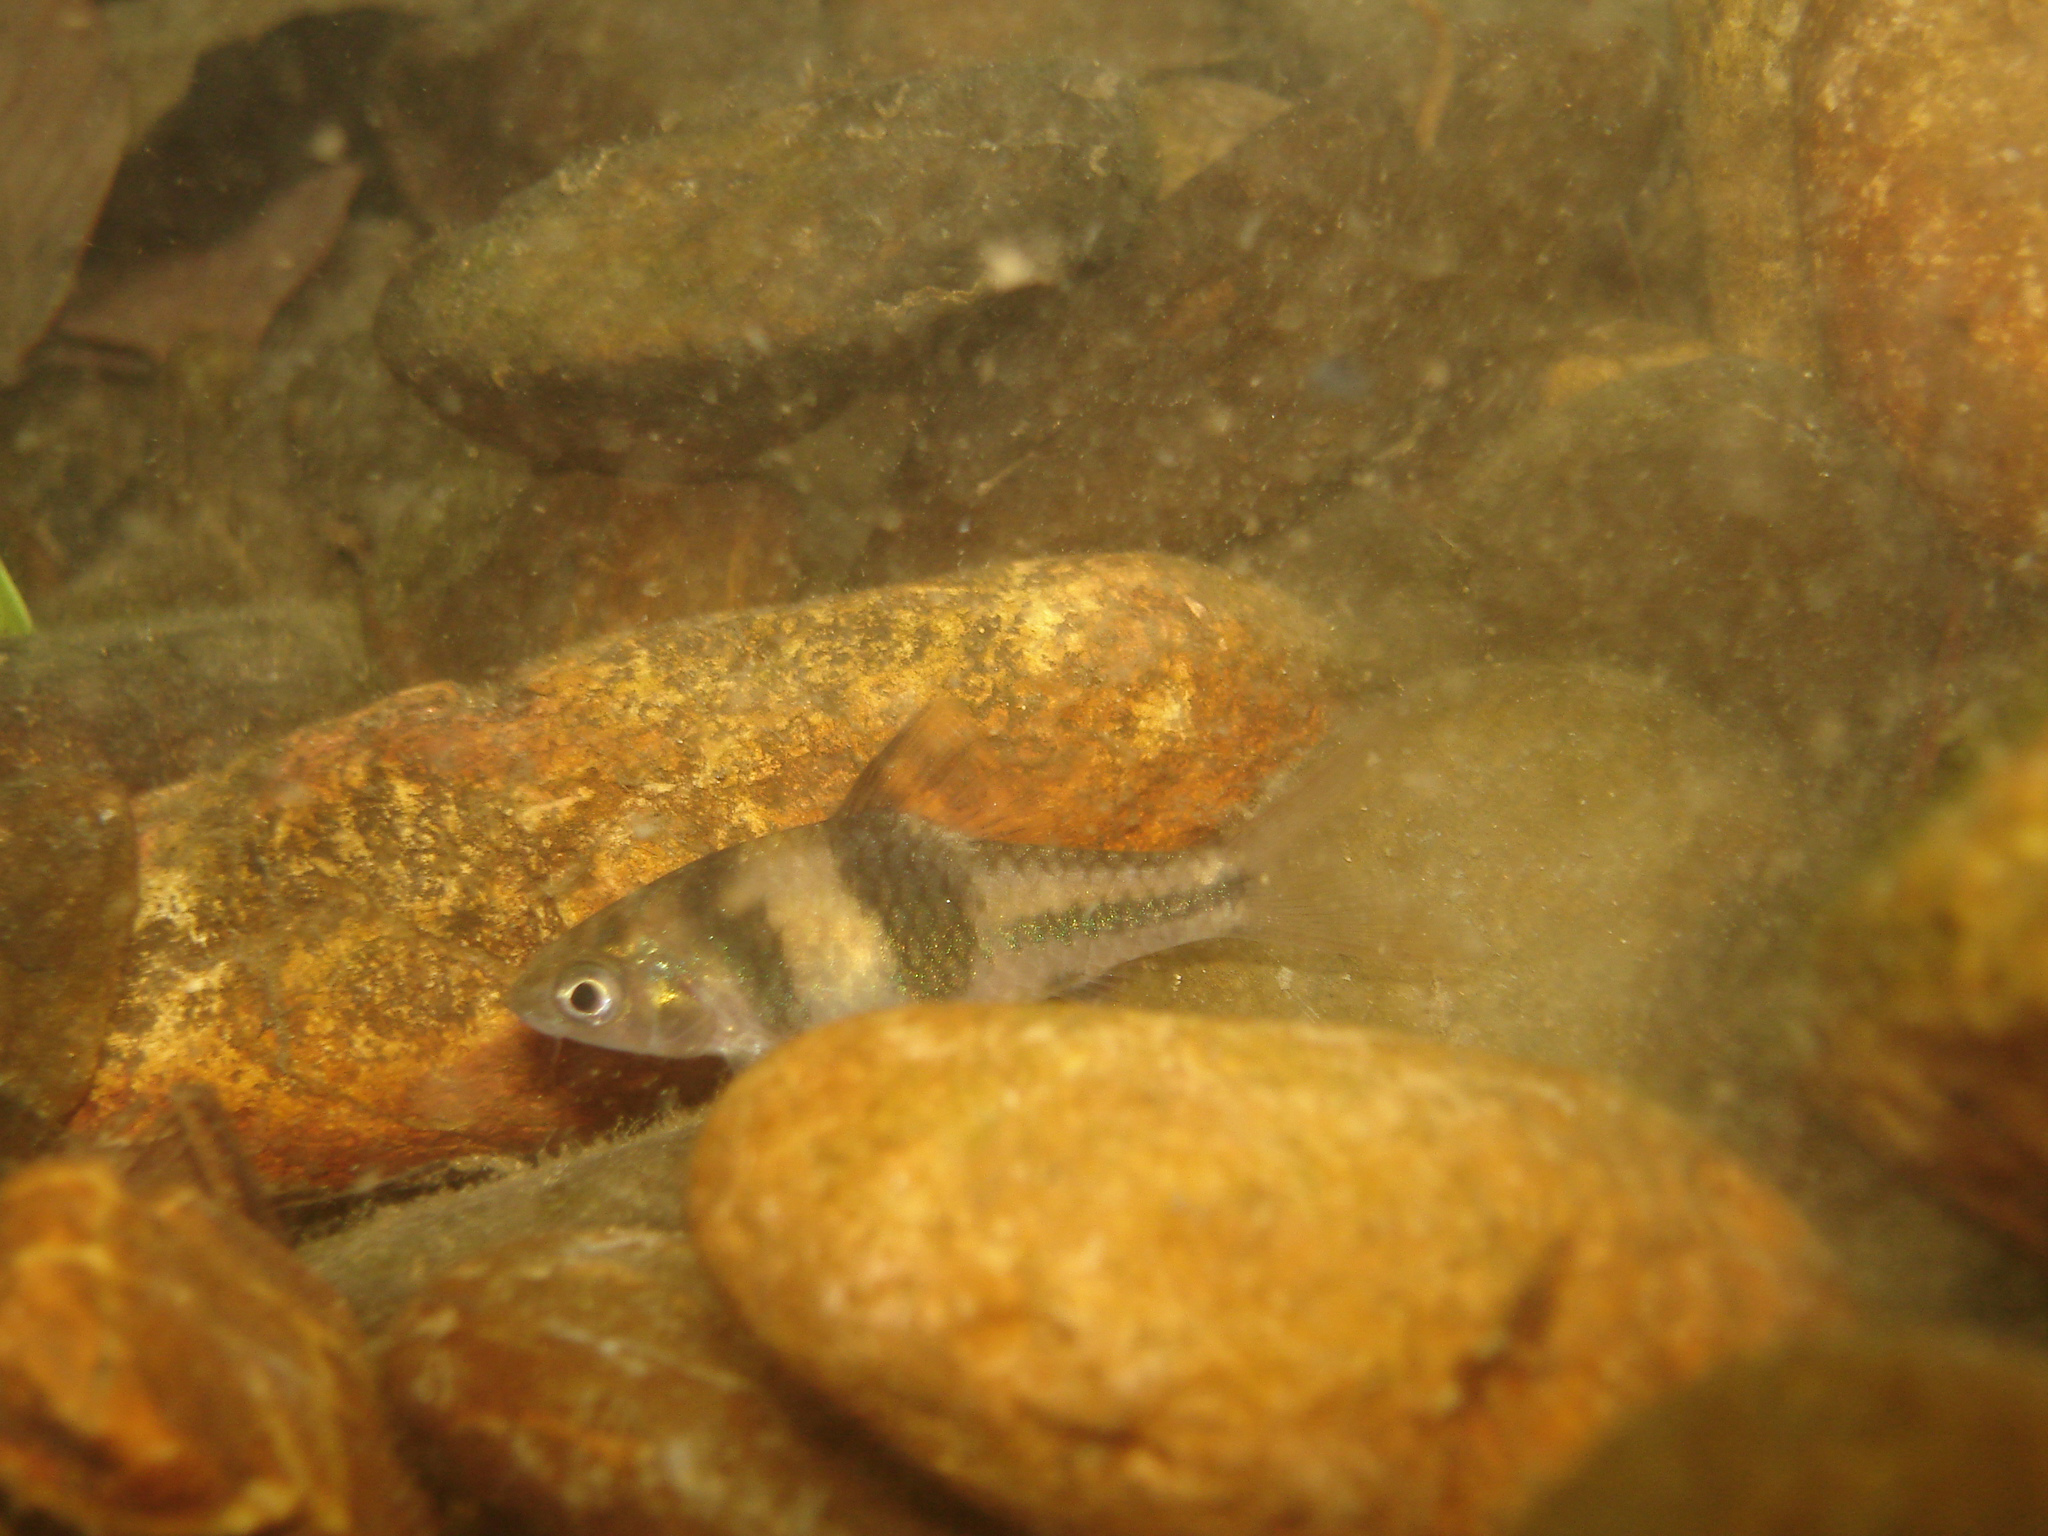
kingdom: Animalia
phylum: Chordata
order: Cypriniformes
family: Cyprinidae
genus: Barbodes
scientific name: Barbodes lateristriga
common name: Spanner barb
